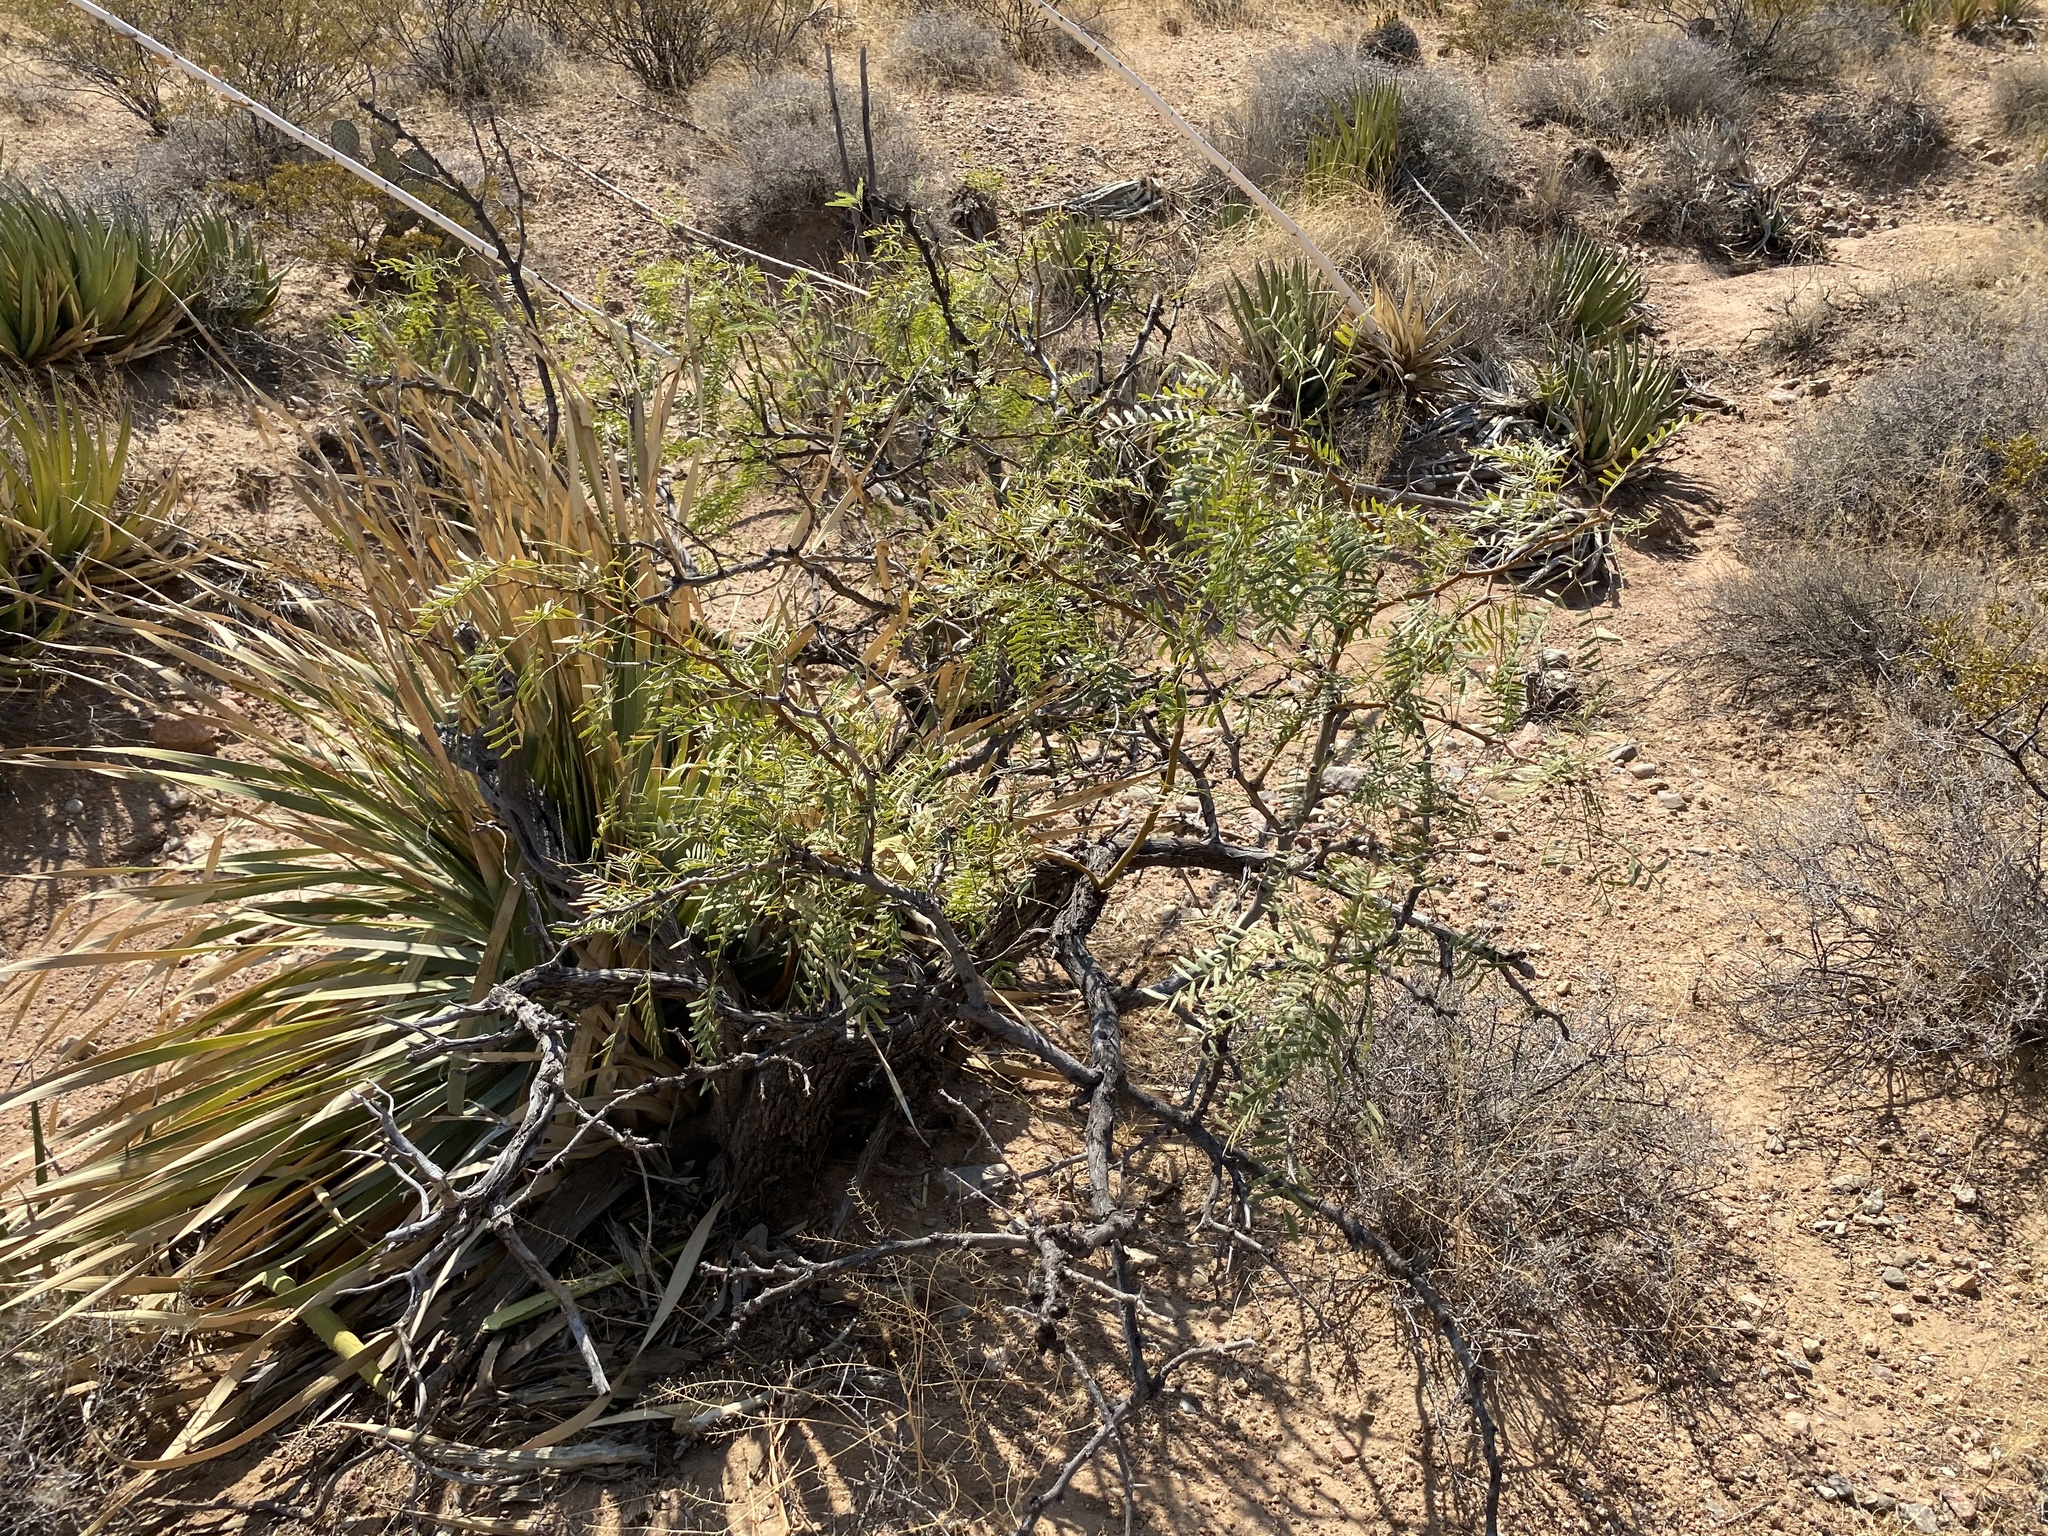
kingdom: Plantae
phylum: Tracheophyta
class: Magnoliopsida
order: Fabales
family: Fabaceae
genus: Prosopis
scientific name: Prosopis glandulosa
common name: Honey mesquite
